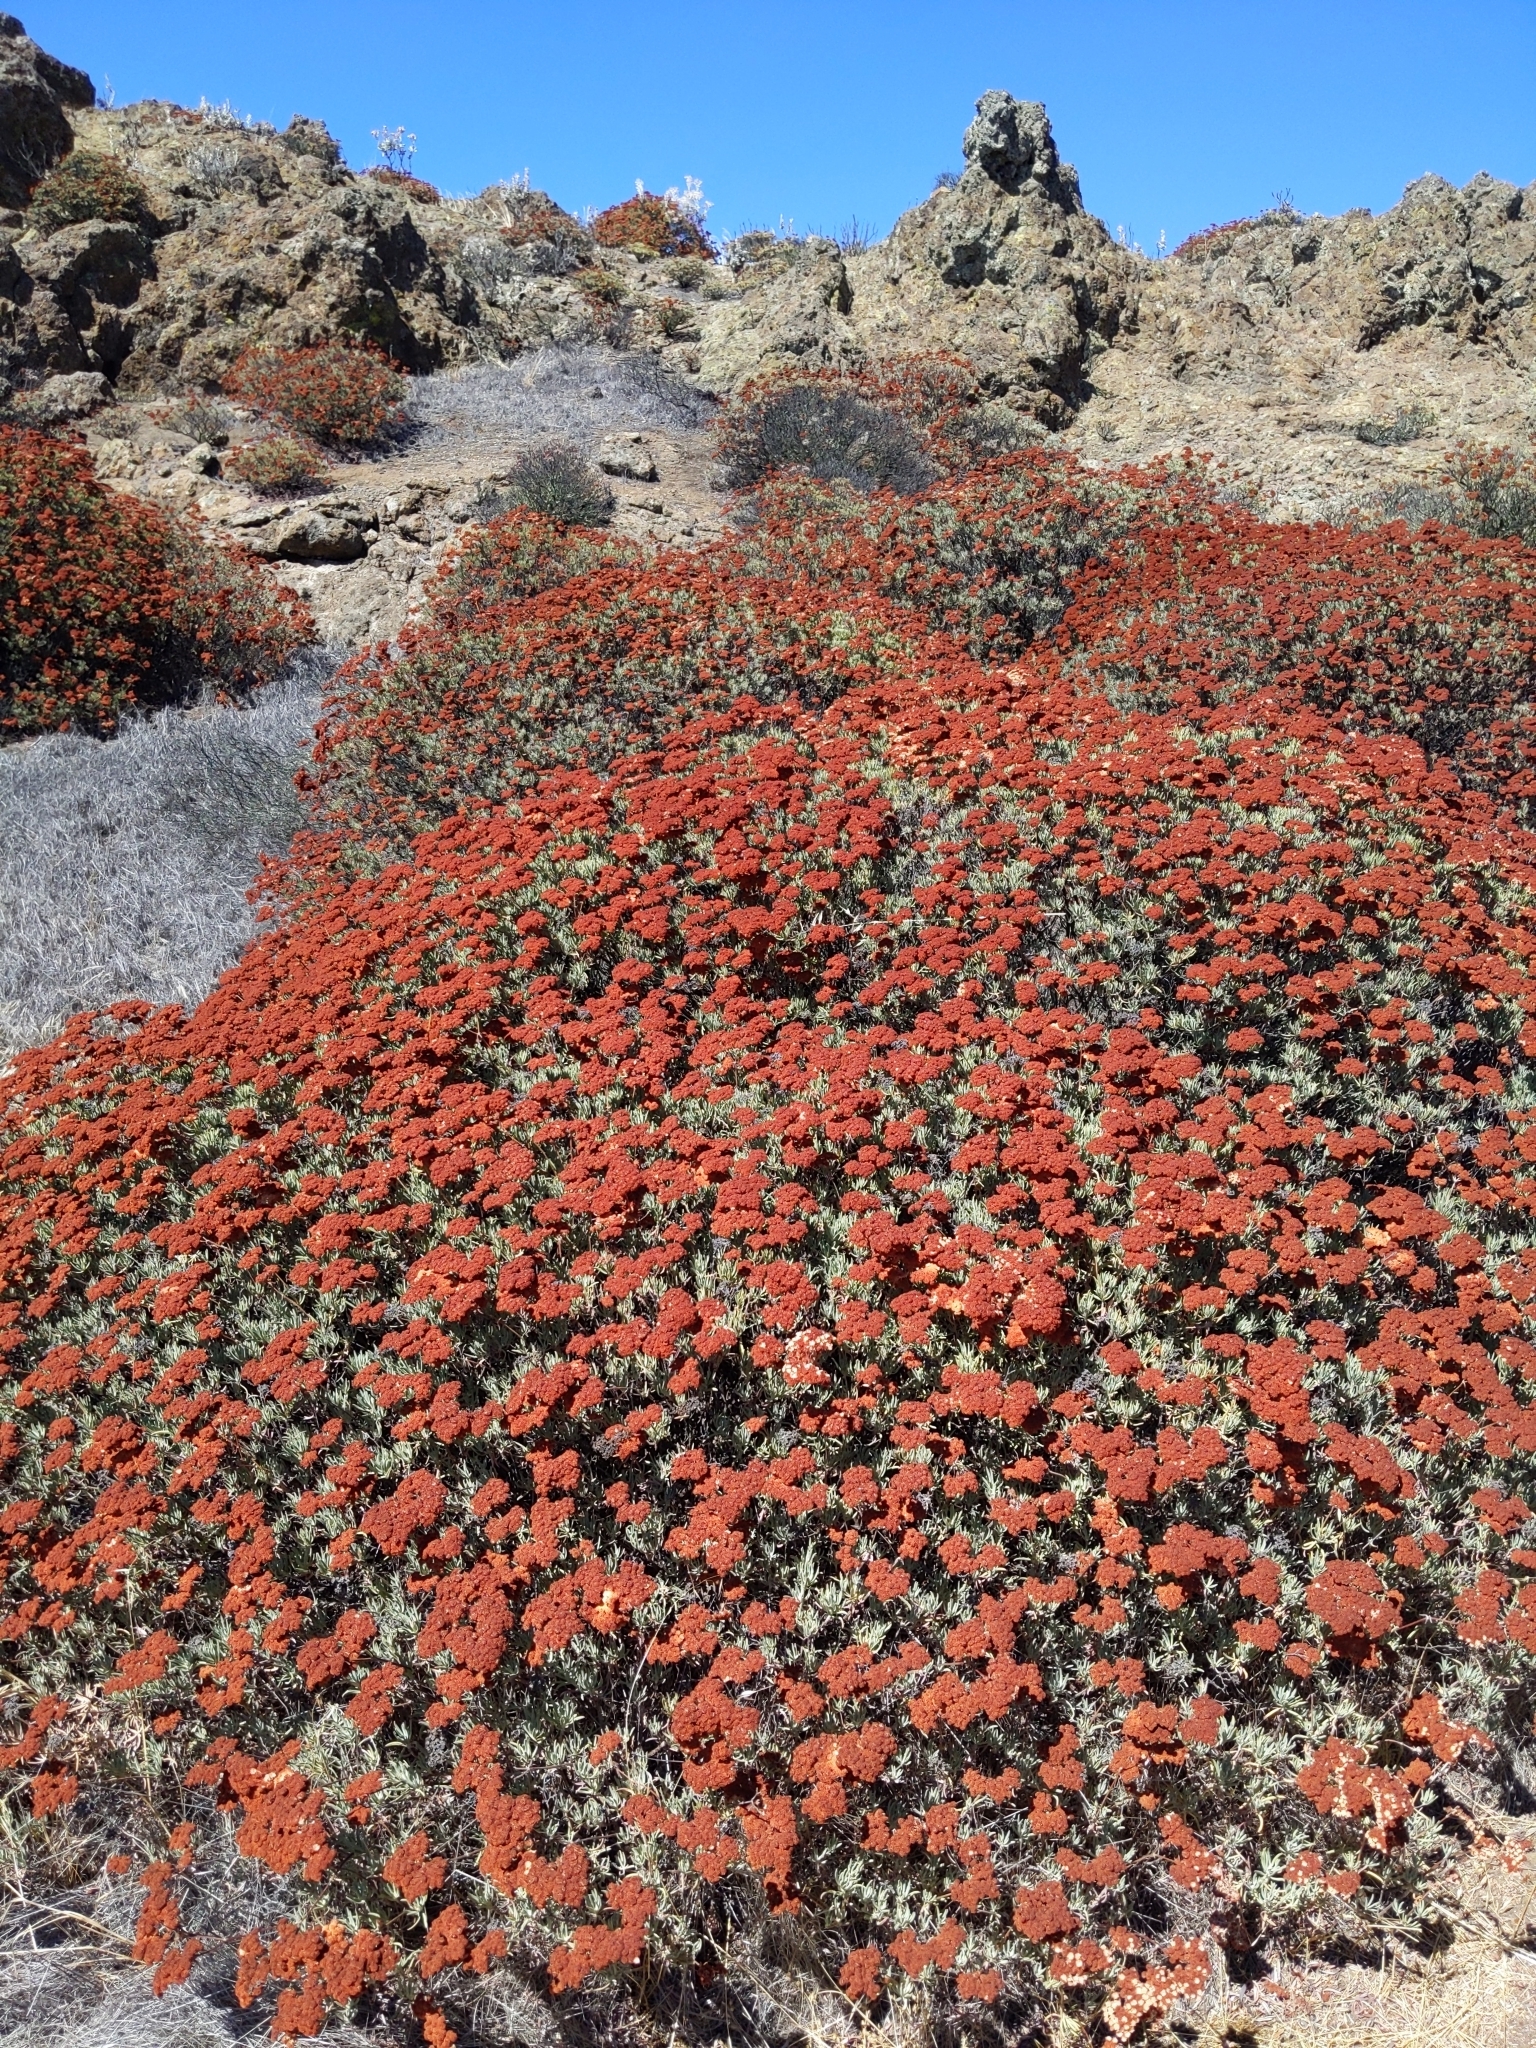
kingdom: Plantae
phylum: Tracheophyta
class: Magnoliopsida
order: Caryophyllales
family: Polygonaceae
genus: Eriogonum
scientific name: Eriogonum arborescens
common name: Island buckwheat
